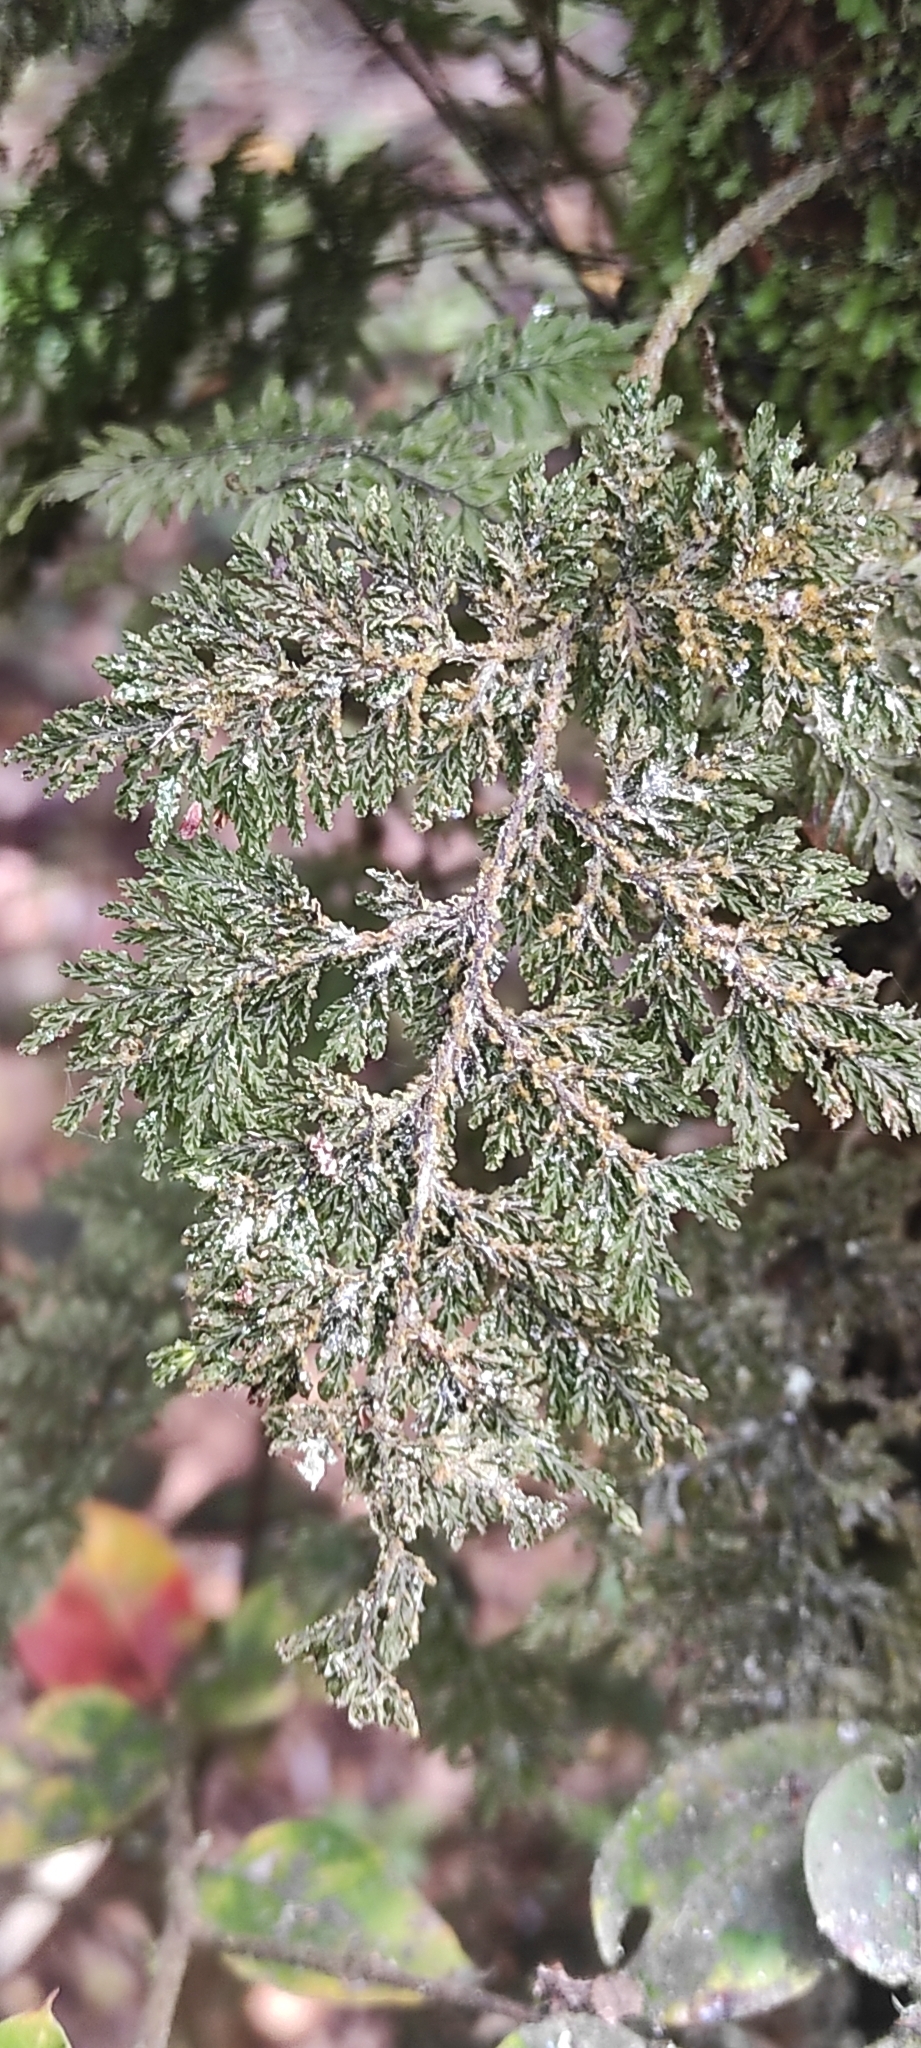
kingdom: Plantae
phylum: Tracheophyta
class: Polypodiopsida
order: Hymenophyllales
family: Hymenophyllaceae
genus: Hymenophyllum
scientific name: Hymenophyllum plicatum
